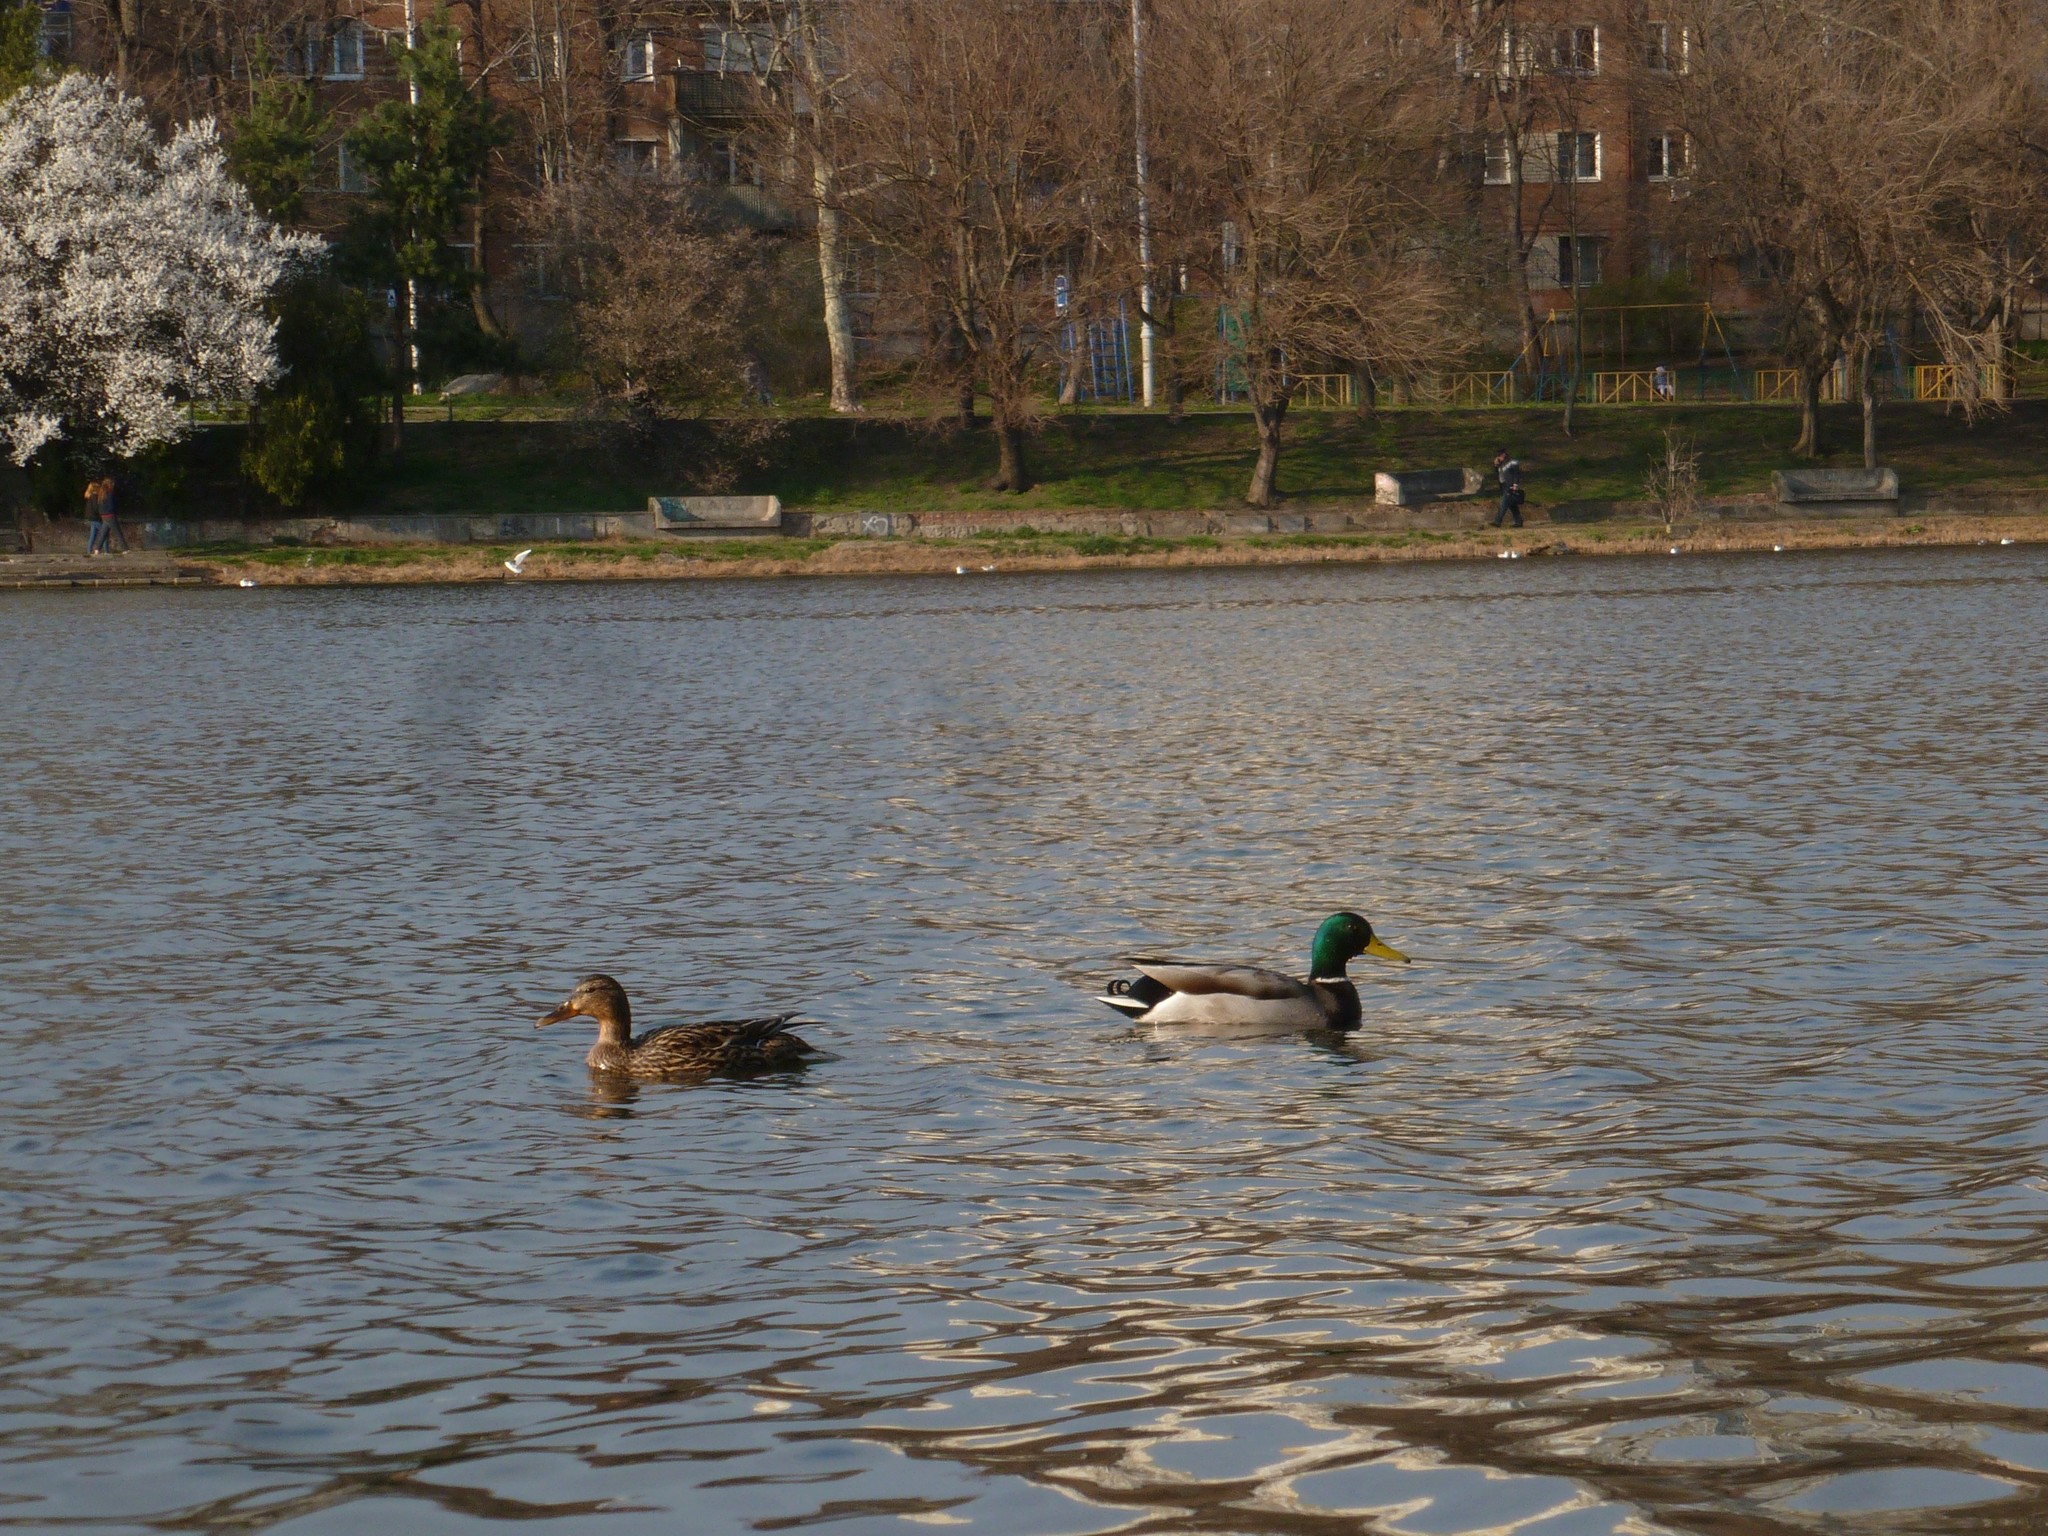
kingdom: Animalia
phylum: Chordata
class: Aves
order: Anseriformes
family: Anatidae
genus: Anas
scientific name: Anas platyrhynchos
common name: Mallard
